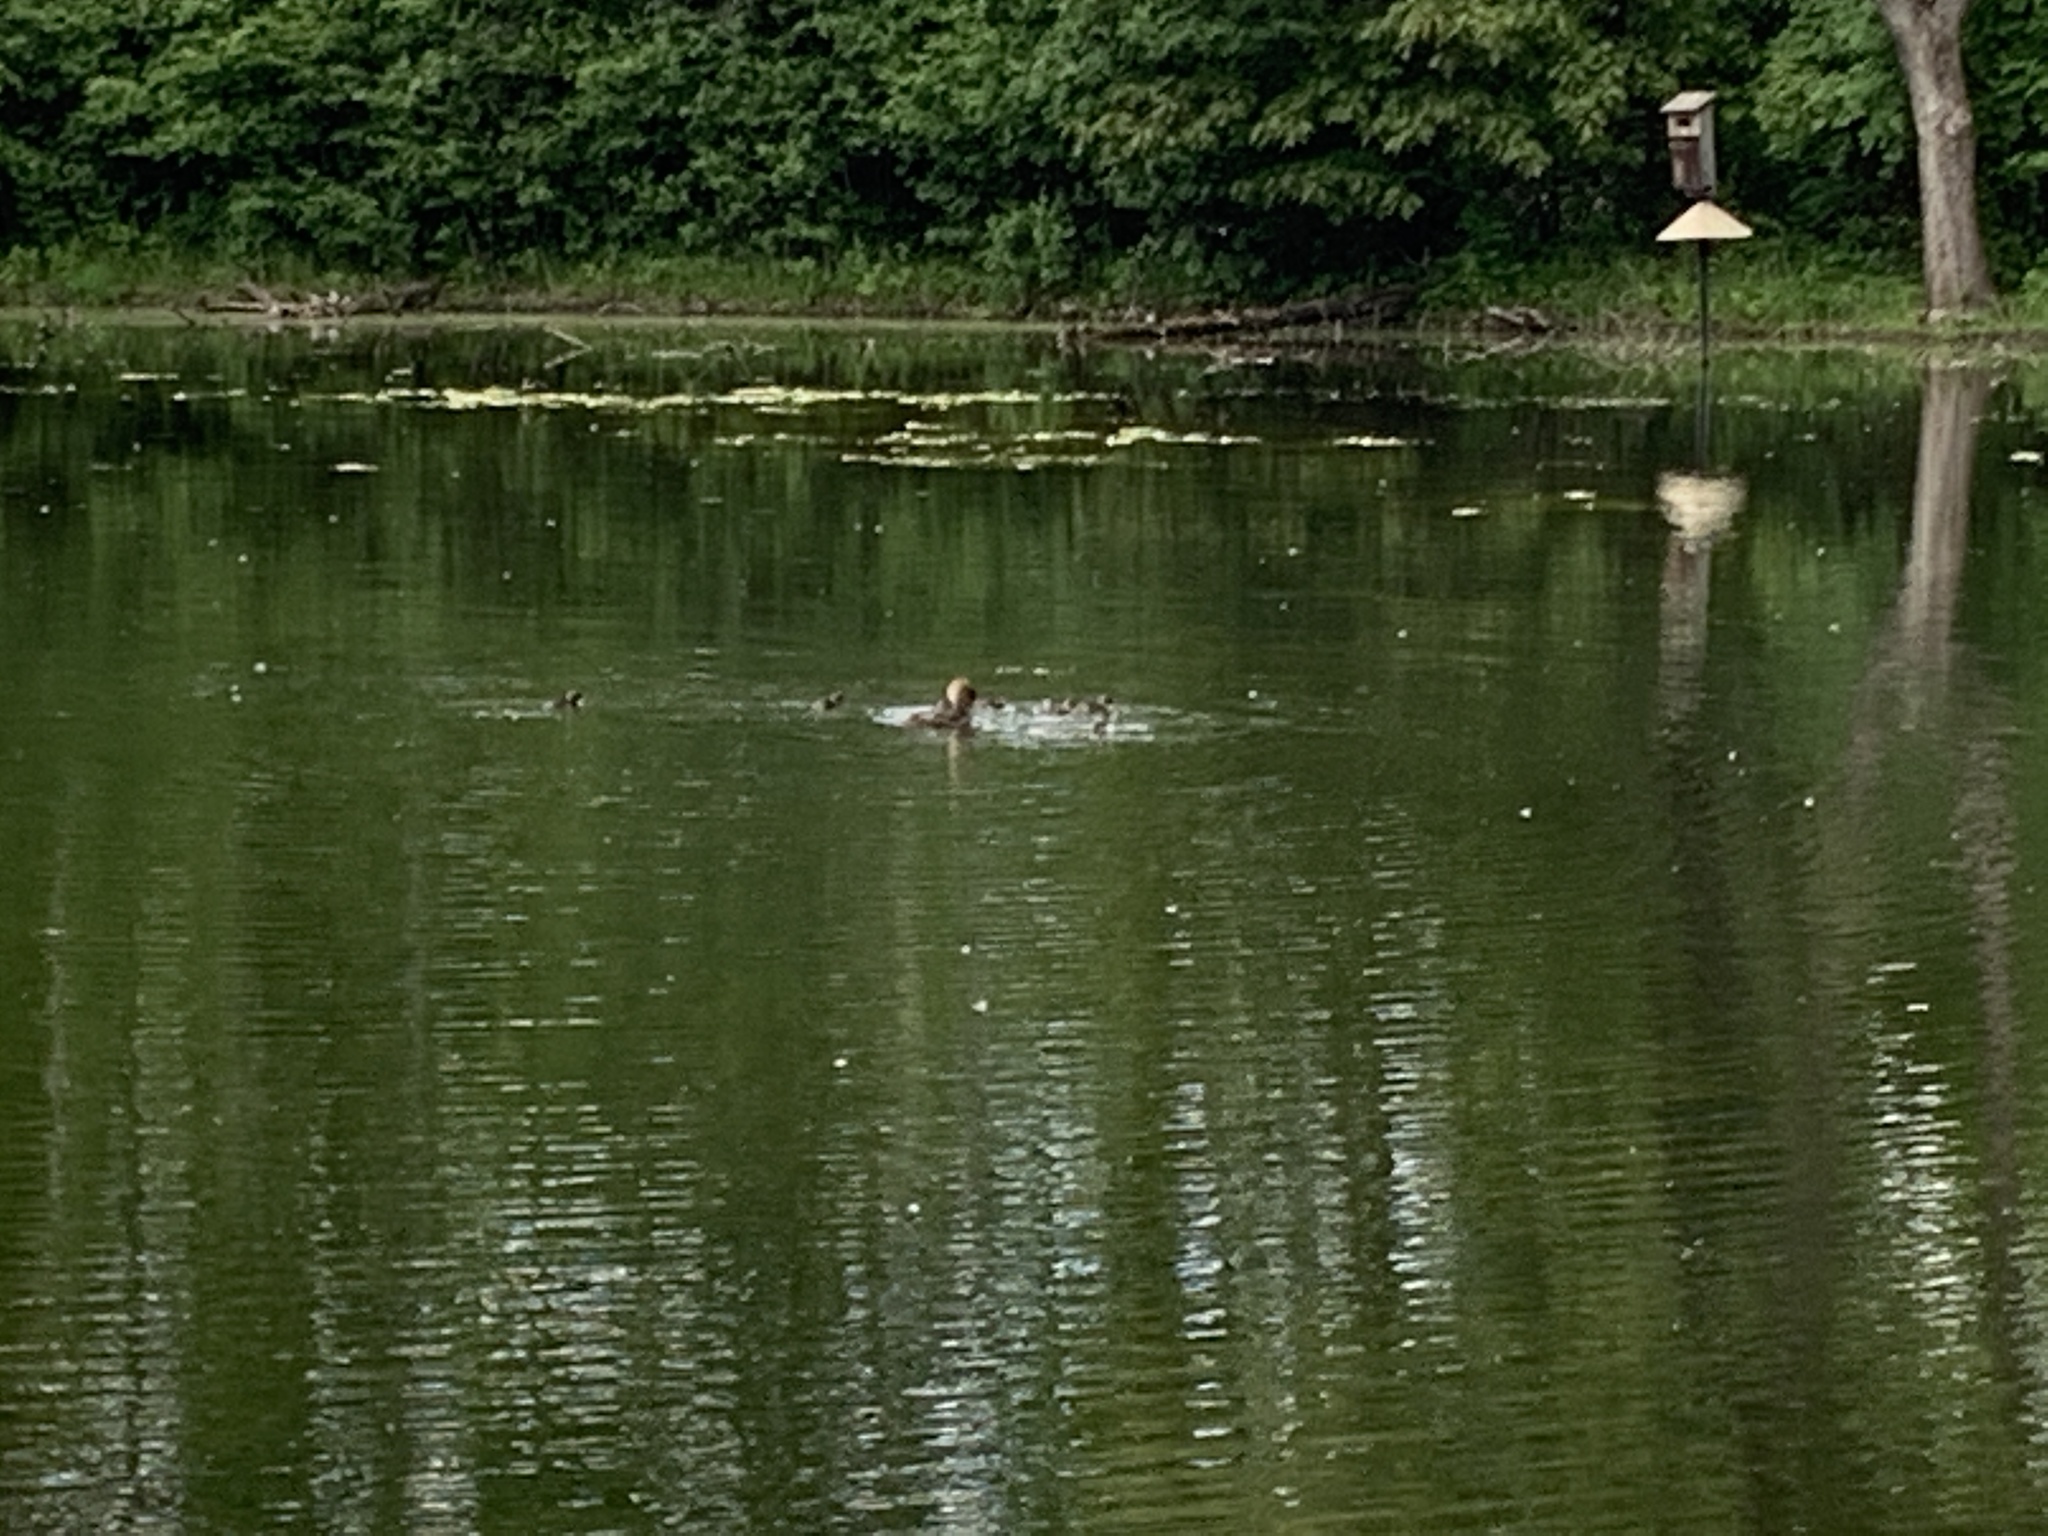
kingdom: Animalia
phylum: Chordata
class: Aves
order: Anseriformes
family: Anatidae
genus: Lophodytes
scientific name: Lophodytes cucullatus
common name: Hooded merganser
